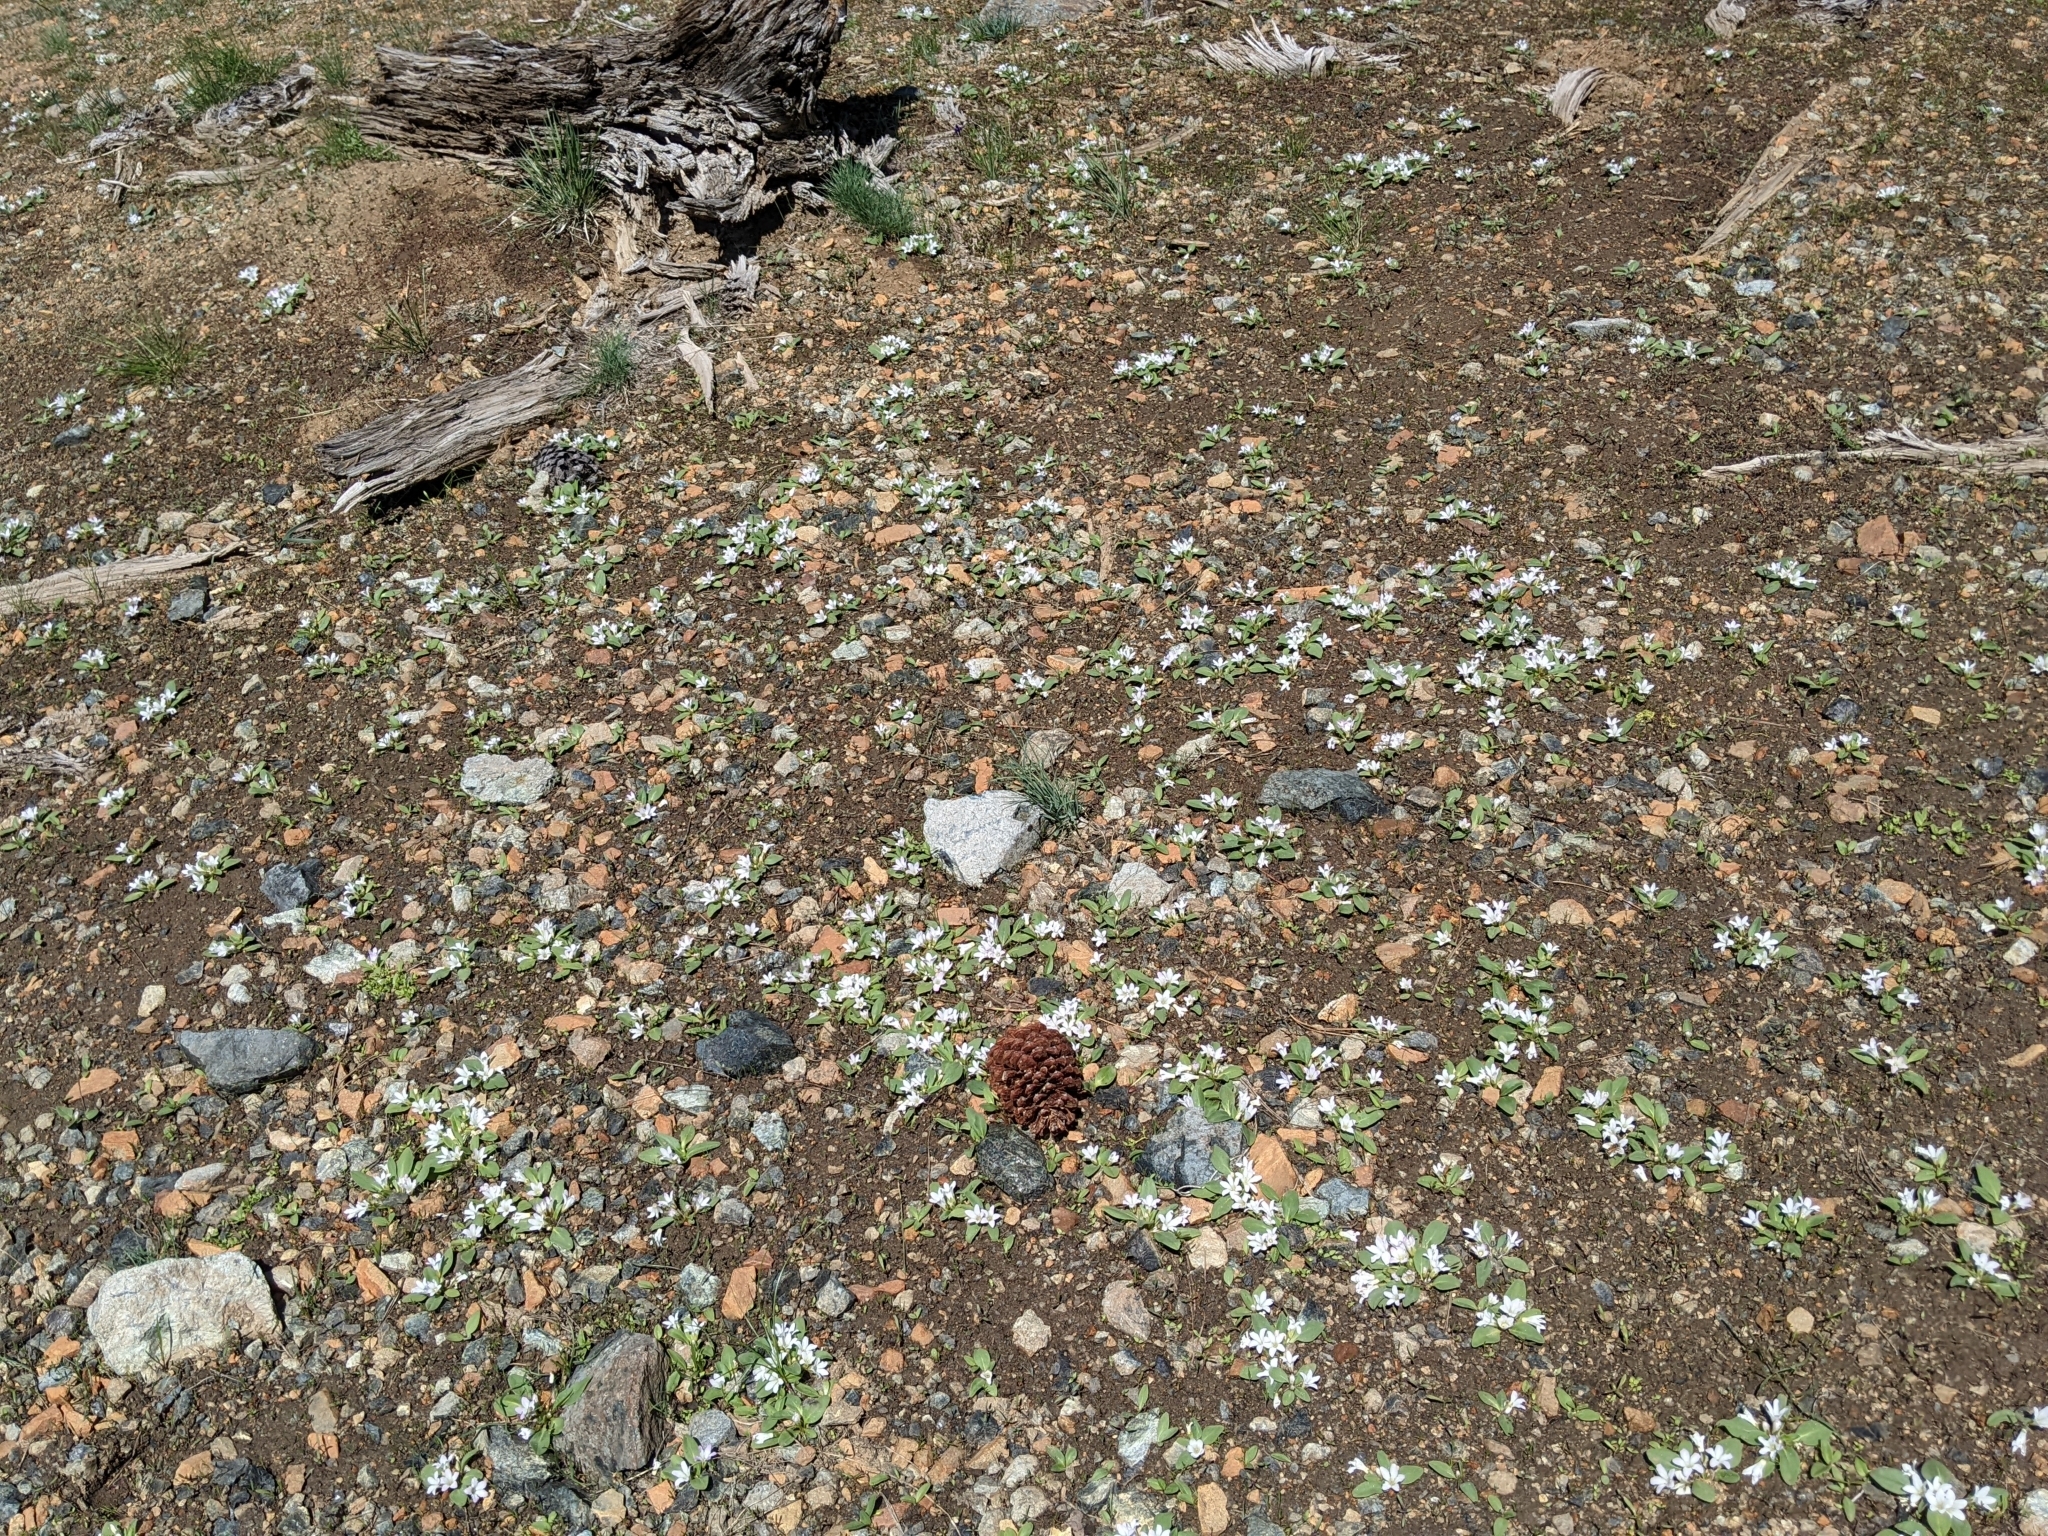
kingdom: Plantae
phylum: Tracheophyta
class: Magnoliopsida
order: Boraginales
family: Hydrophyllaceae
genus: Hesperochiron
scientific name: Hesperochiron californicus
